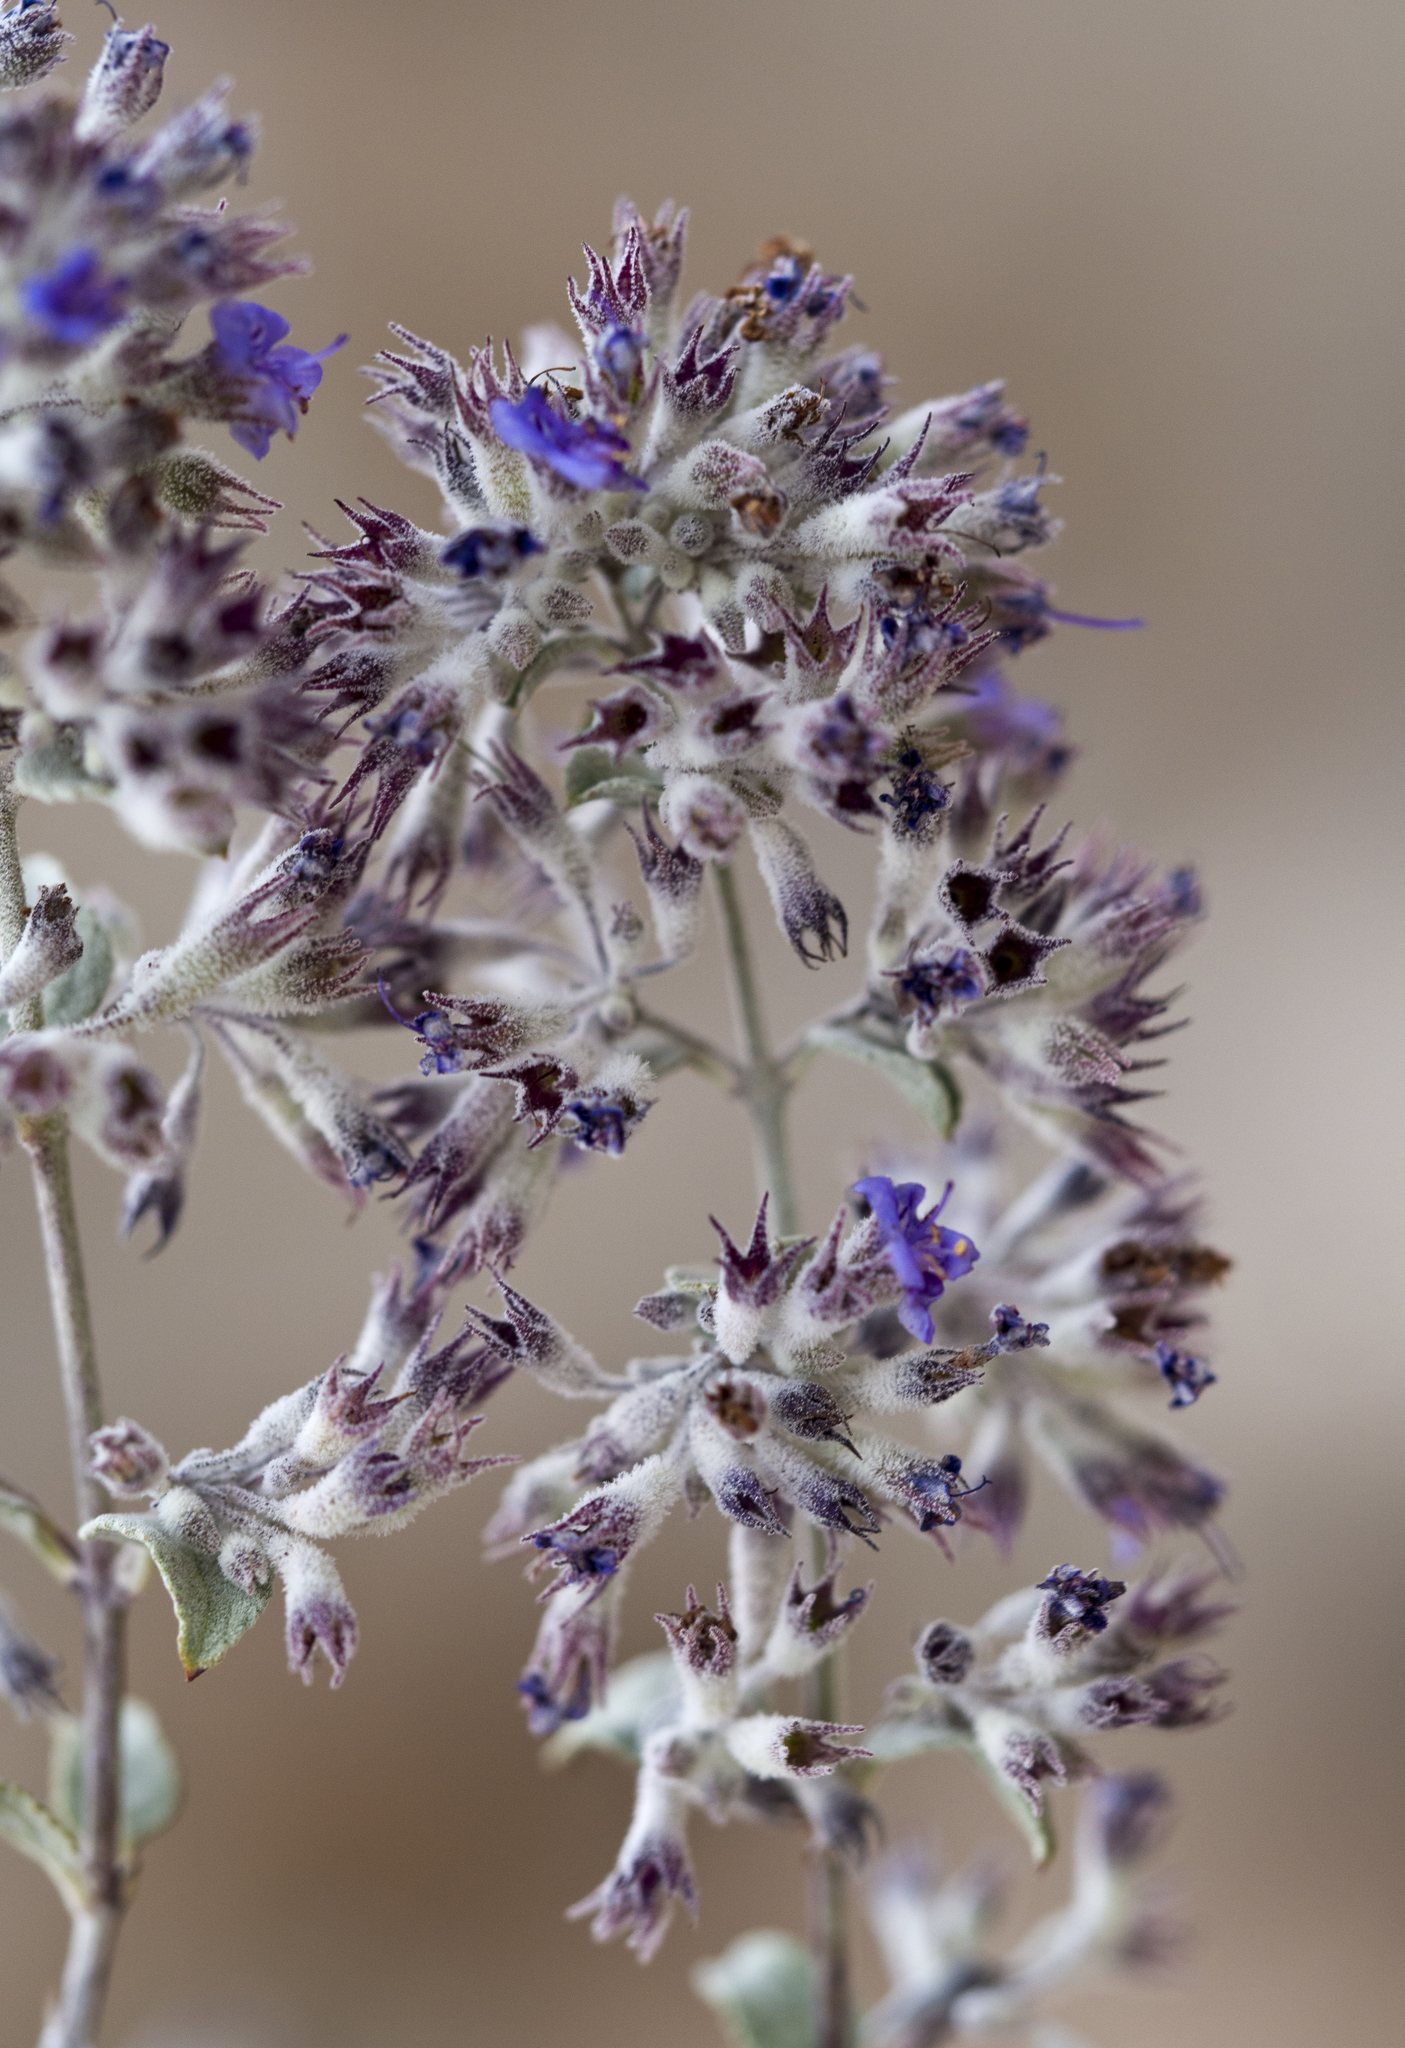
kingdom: Plantae
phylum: Tracheophyta
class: Magnoliopsida
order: Lamiales
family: Lamiaceae
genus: Condea
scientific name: Condea emoryi
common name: Chia
